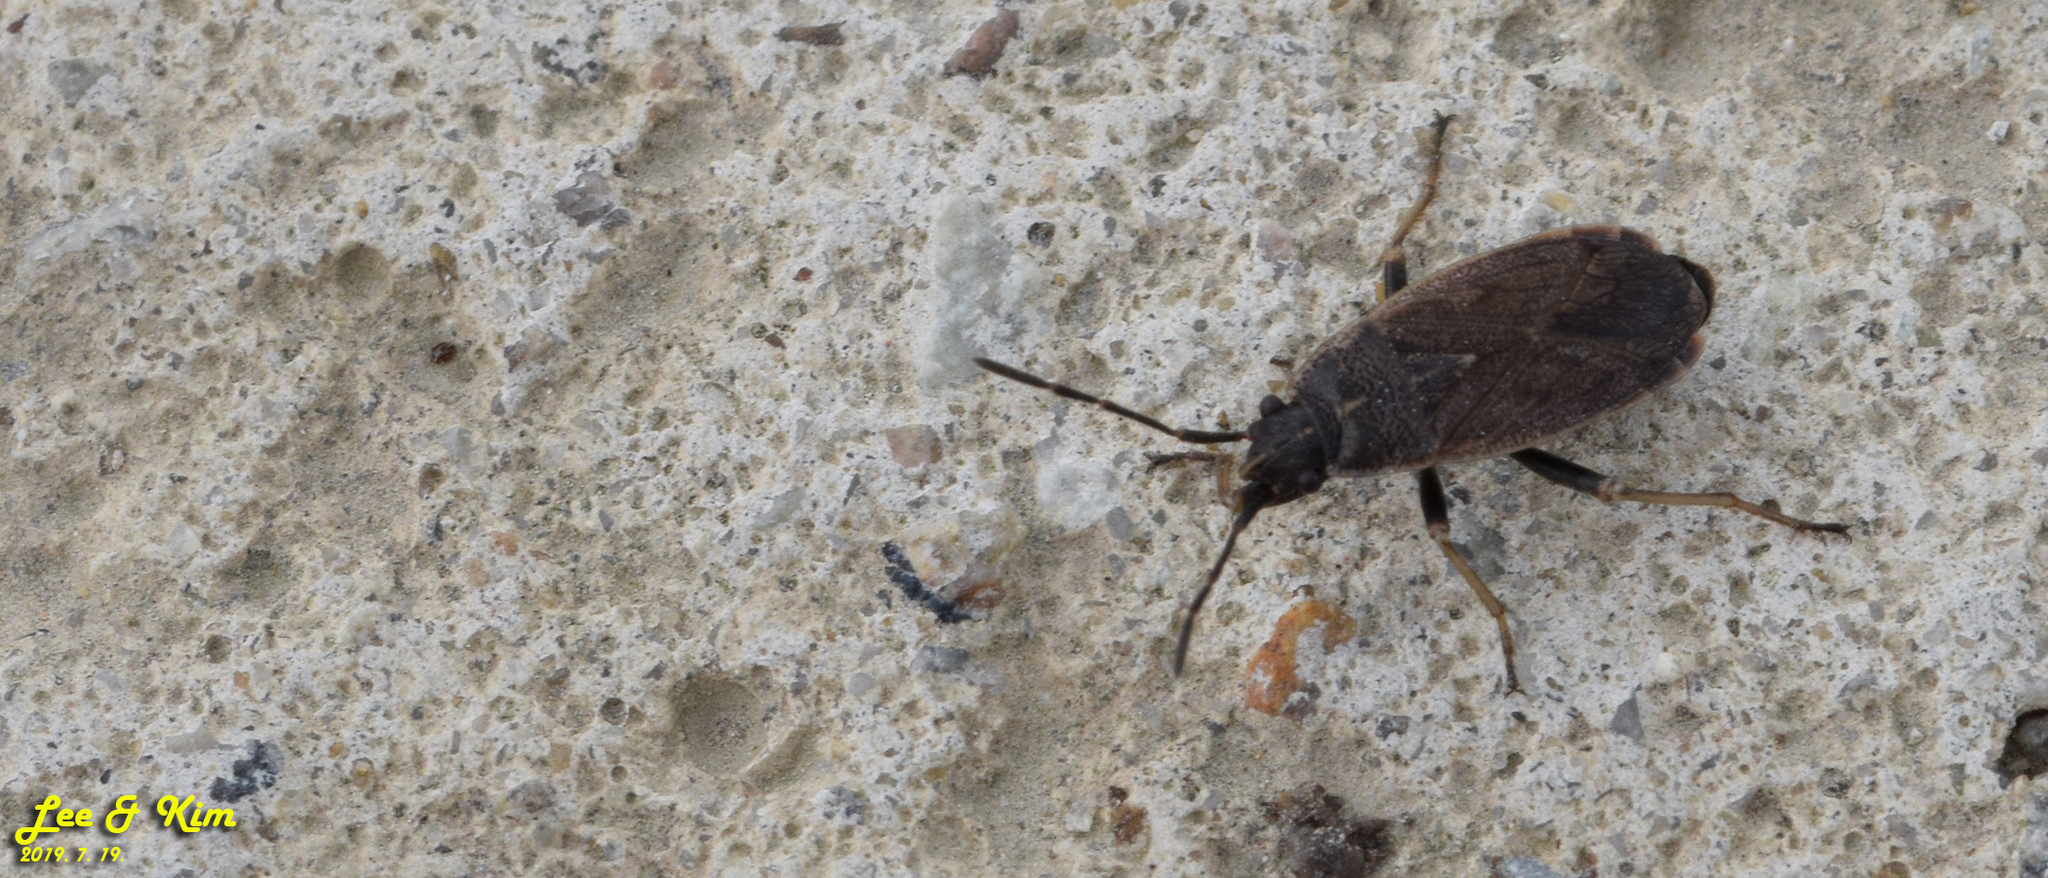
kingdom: Animalia
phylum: Arthropoda
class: Insecta
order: Hemiptera
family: Pyrrhocoridae
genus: Pyrrhocoris
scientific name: Pyrrhocoris sibiricus
